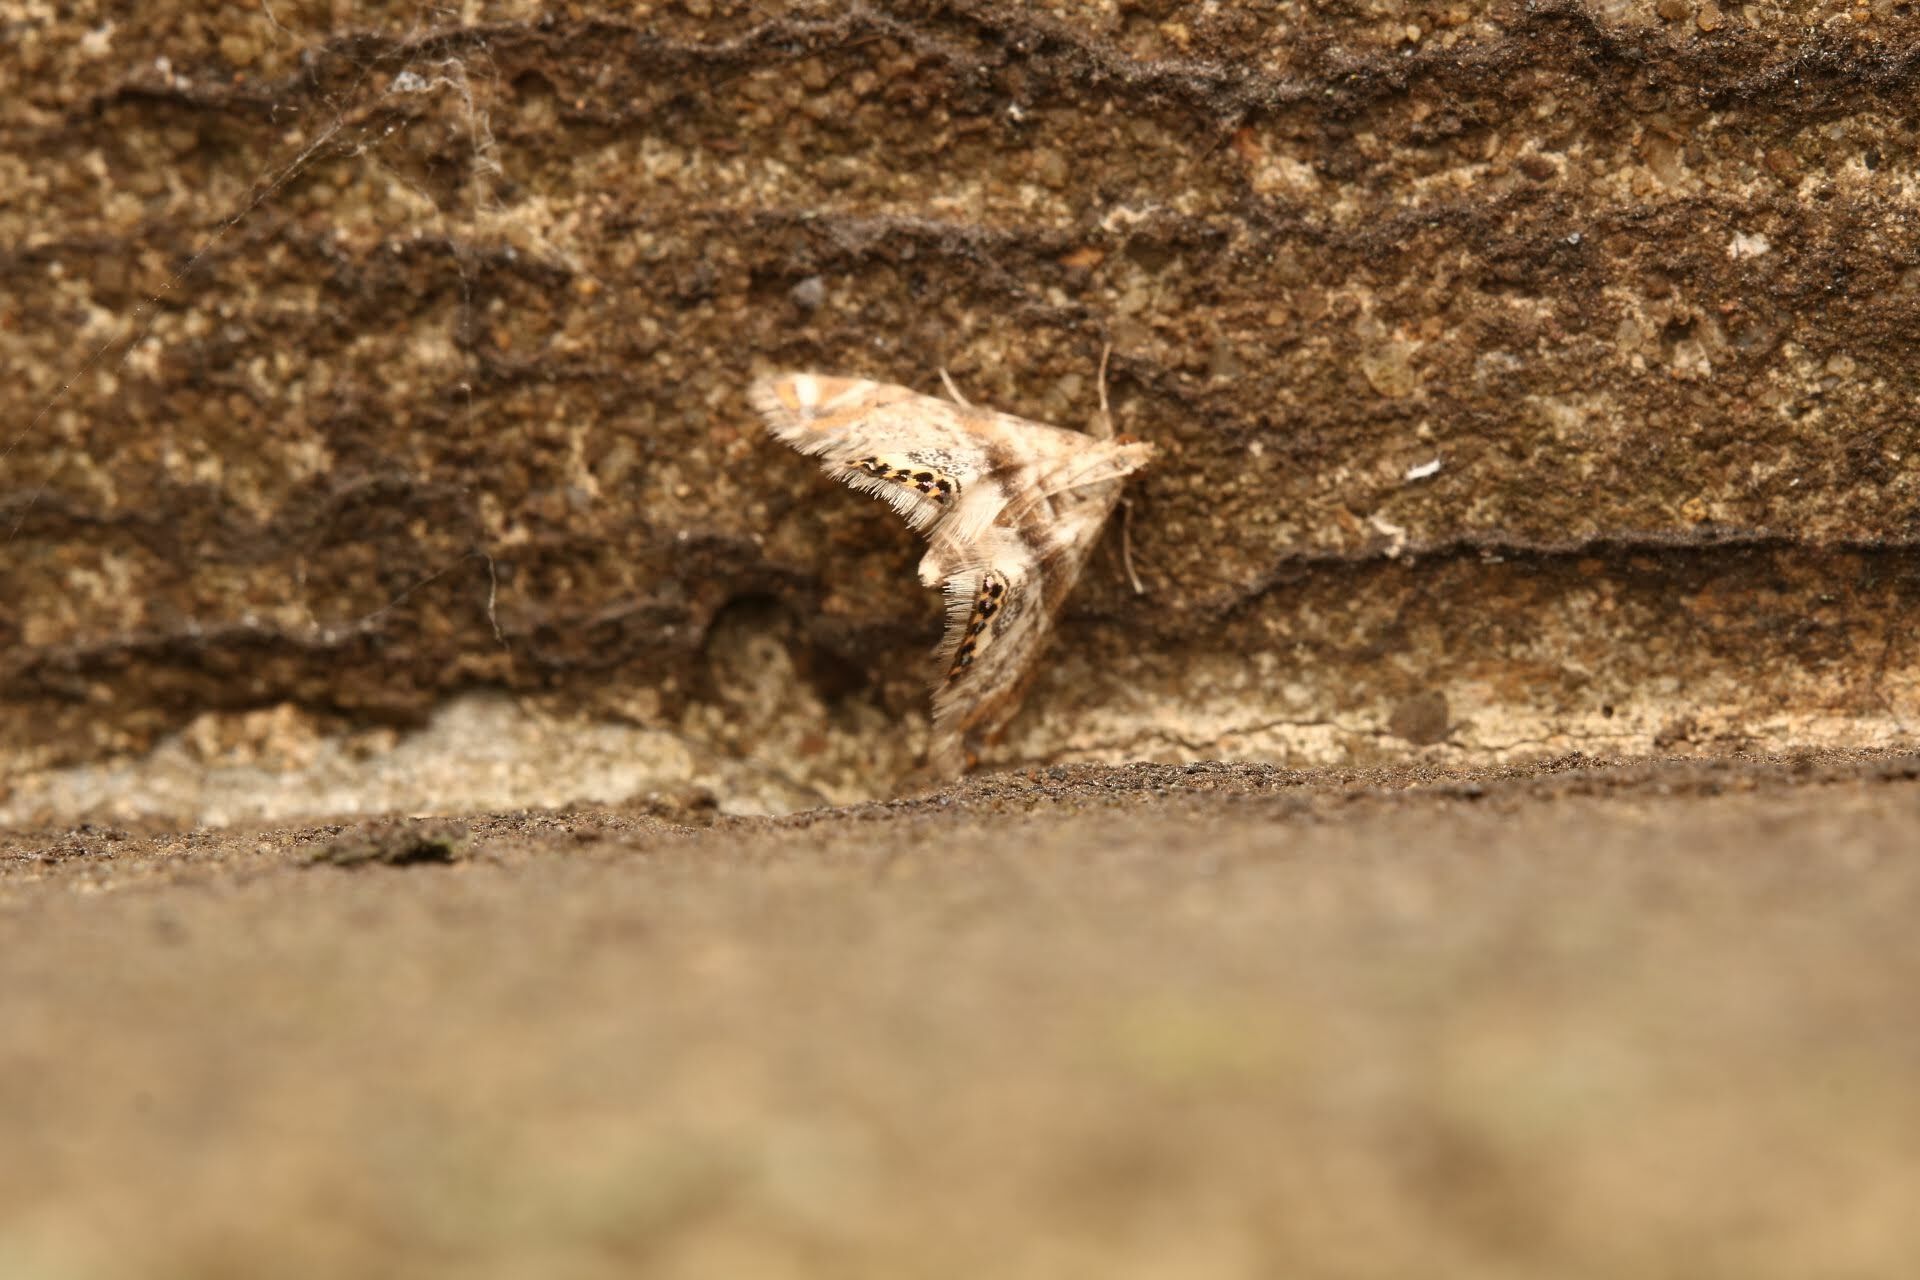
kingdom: Animalia
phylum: Arthropoda
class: Insecta
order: Lepidoptera
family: Crambidae
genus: Petrophila
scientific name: Petrophila fulicalis
